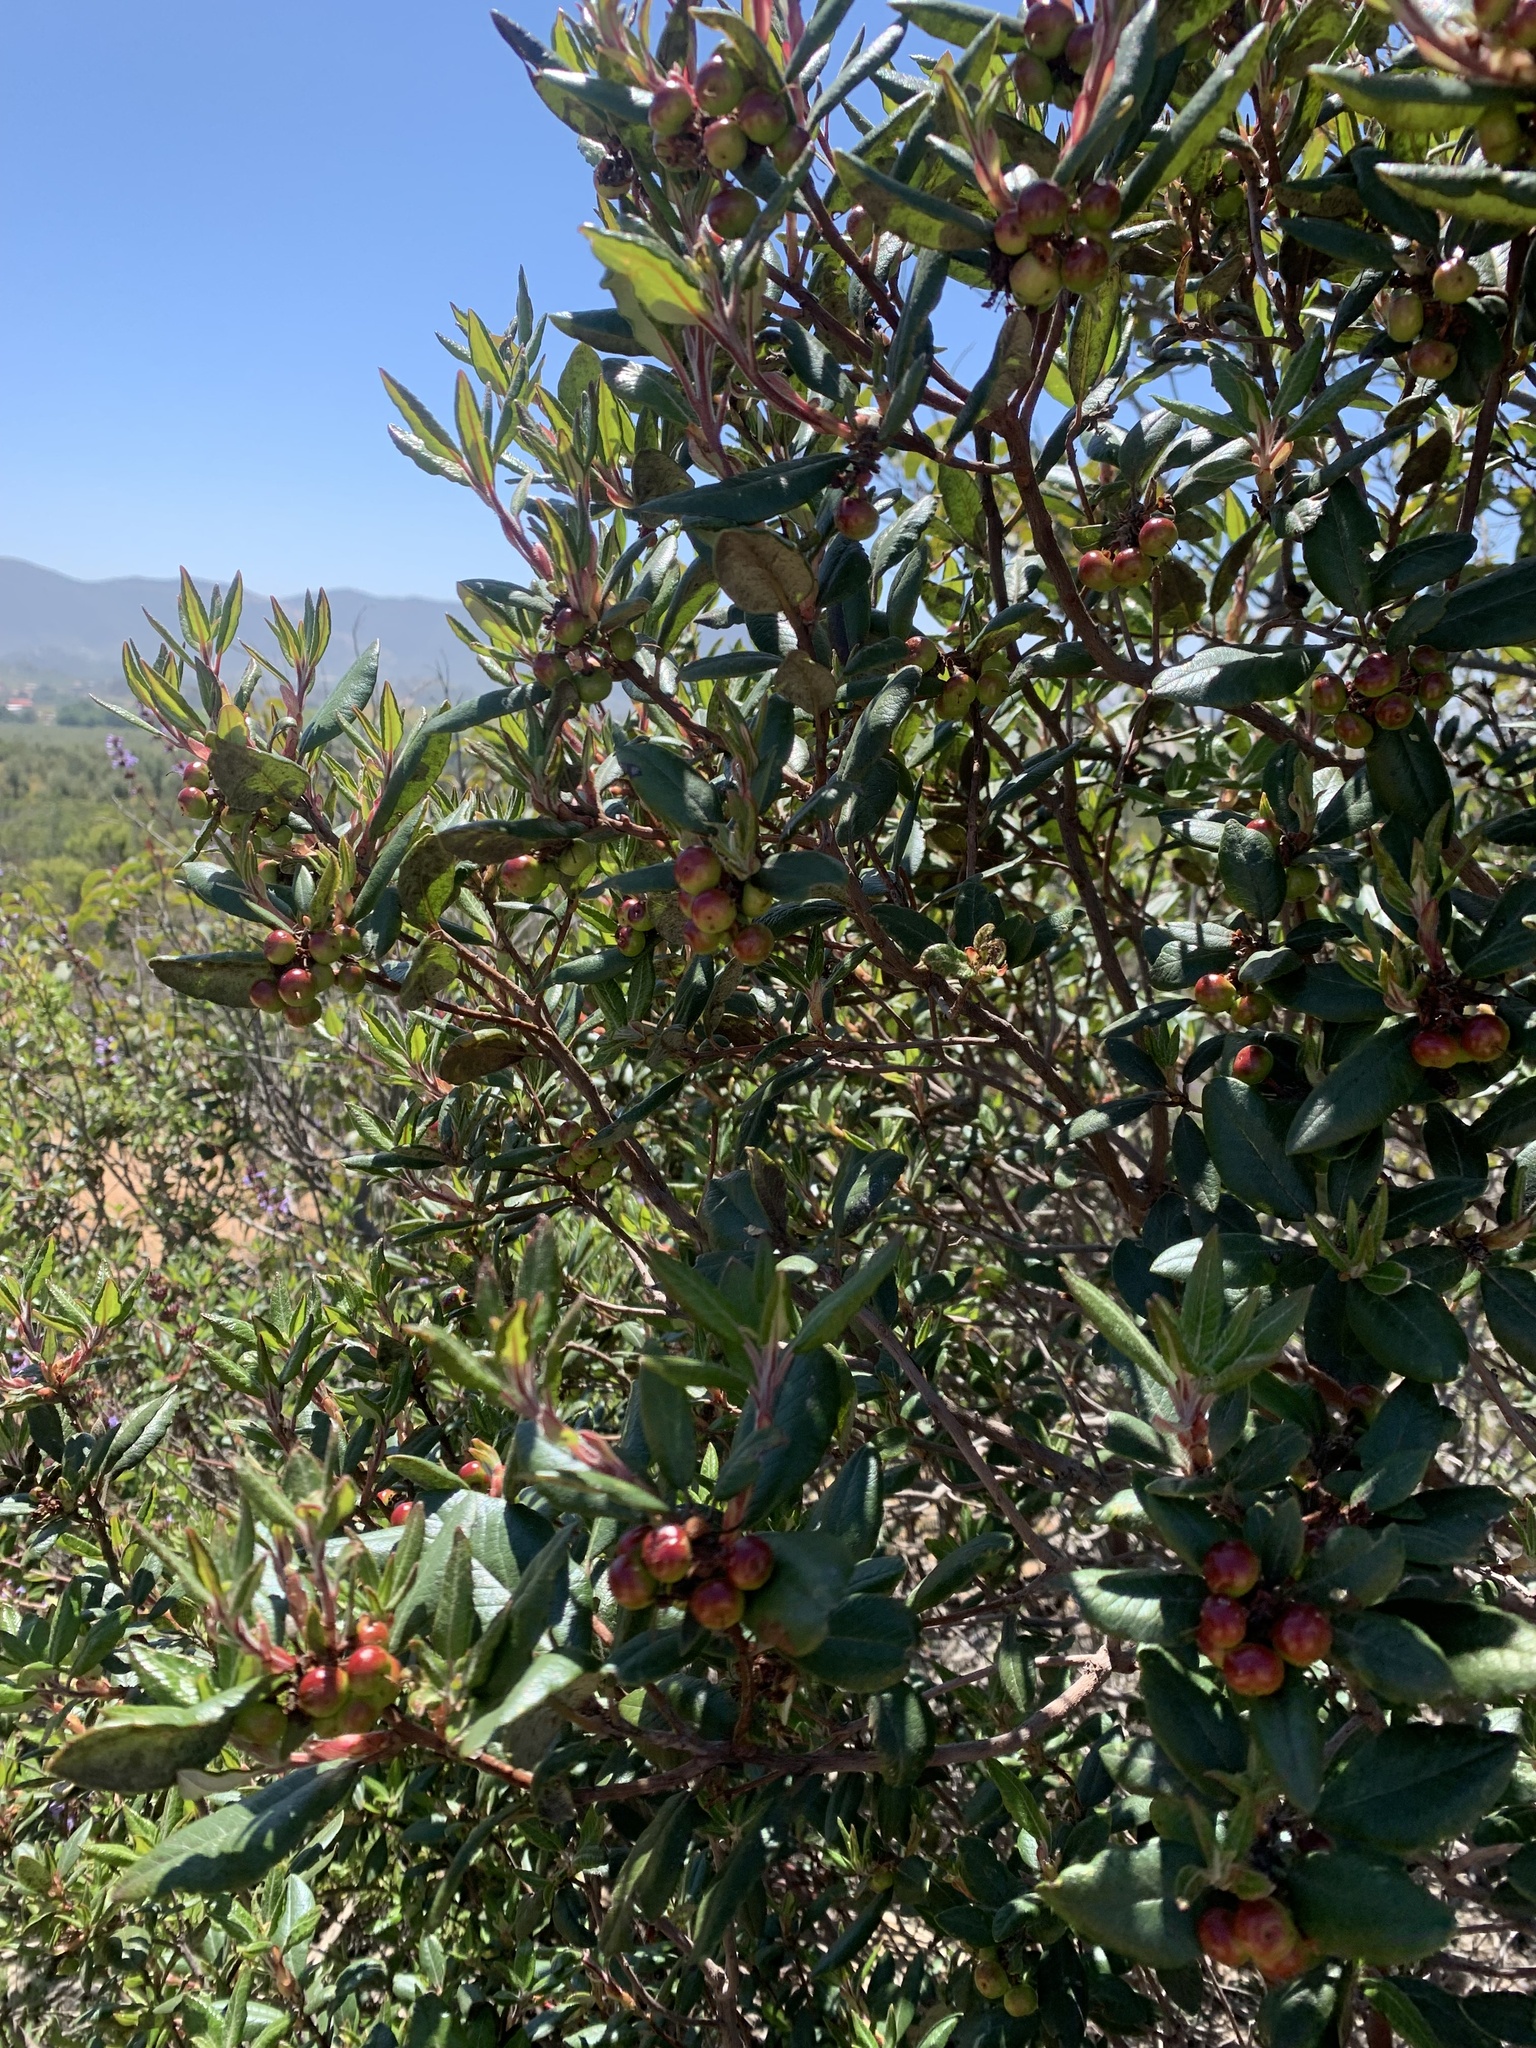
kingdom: Plantae
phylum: Tracheophyta
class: Magnoliopsida
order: Ericales
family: Ericaceae
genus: Arctostaphylos
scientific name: Arctostaphylos bicolor
